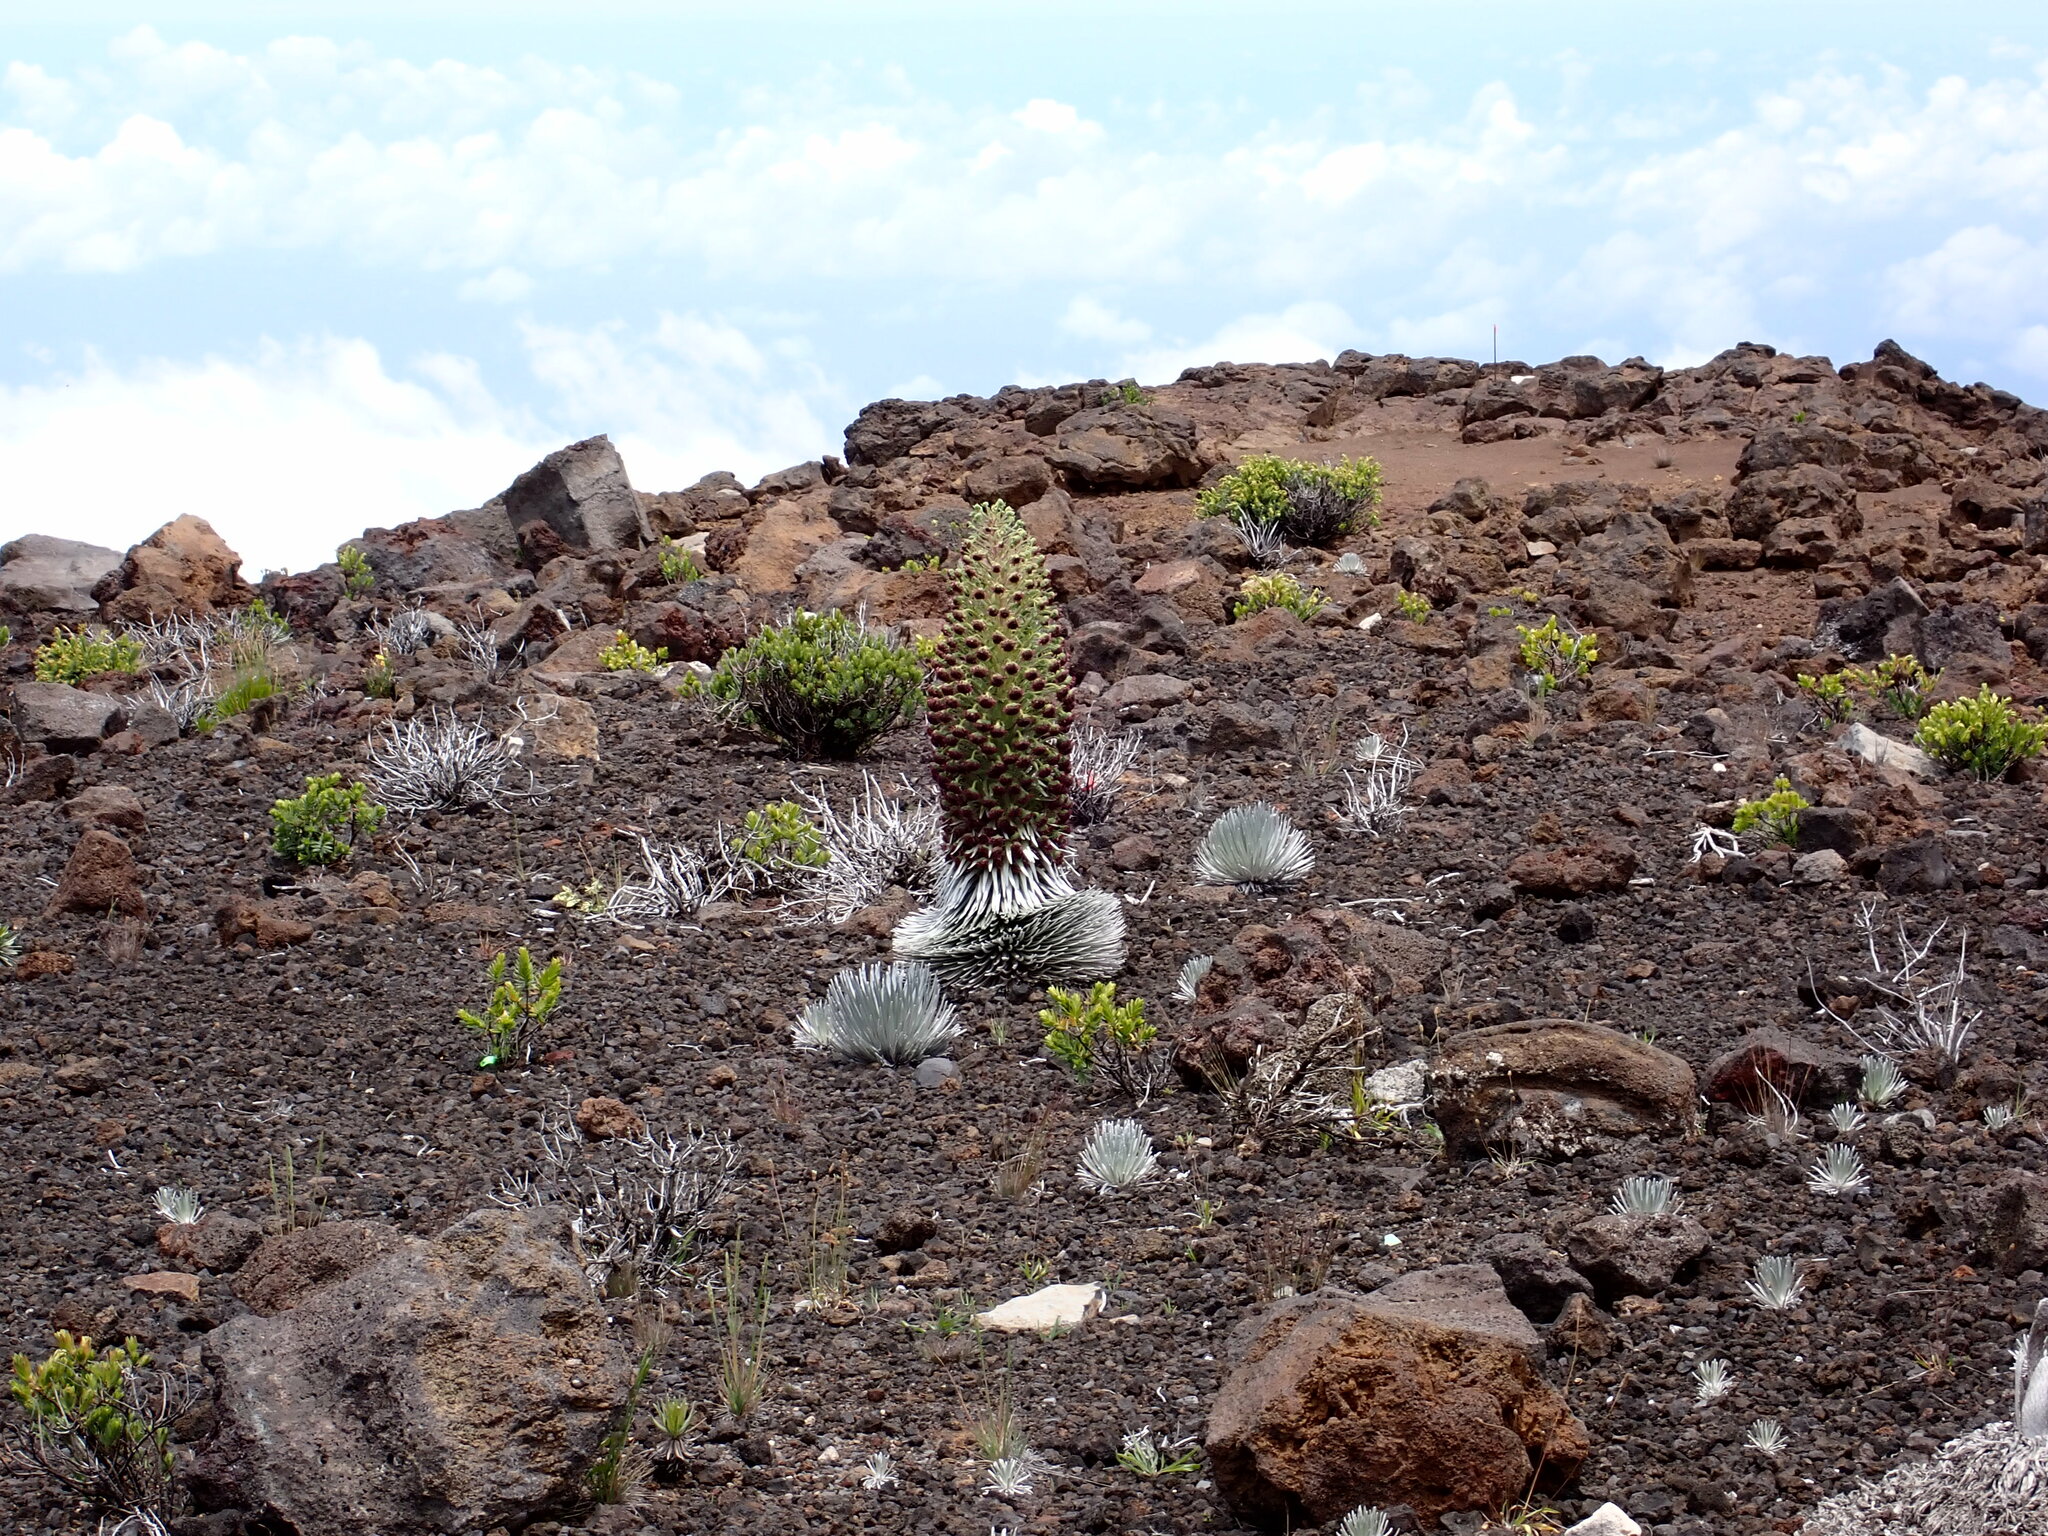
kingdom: Plantae
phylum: Tracheophyta
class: Magnoliopsida
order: Asterales
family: Asteraceae
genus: Argyroxiphium
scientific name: Argyroxiphium sandwicense
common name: Silversword
